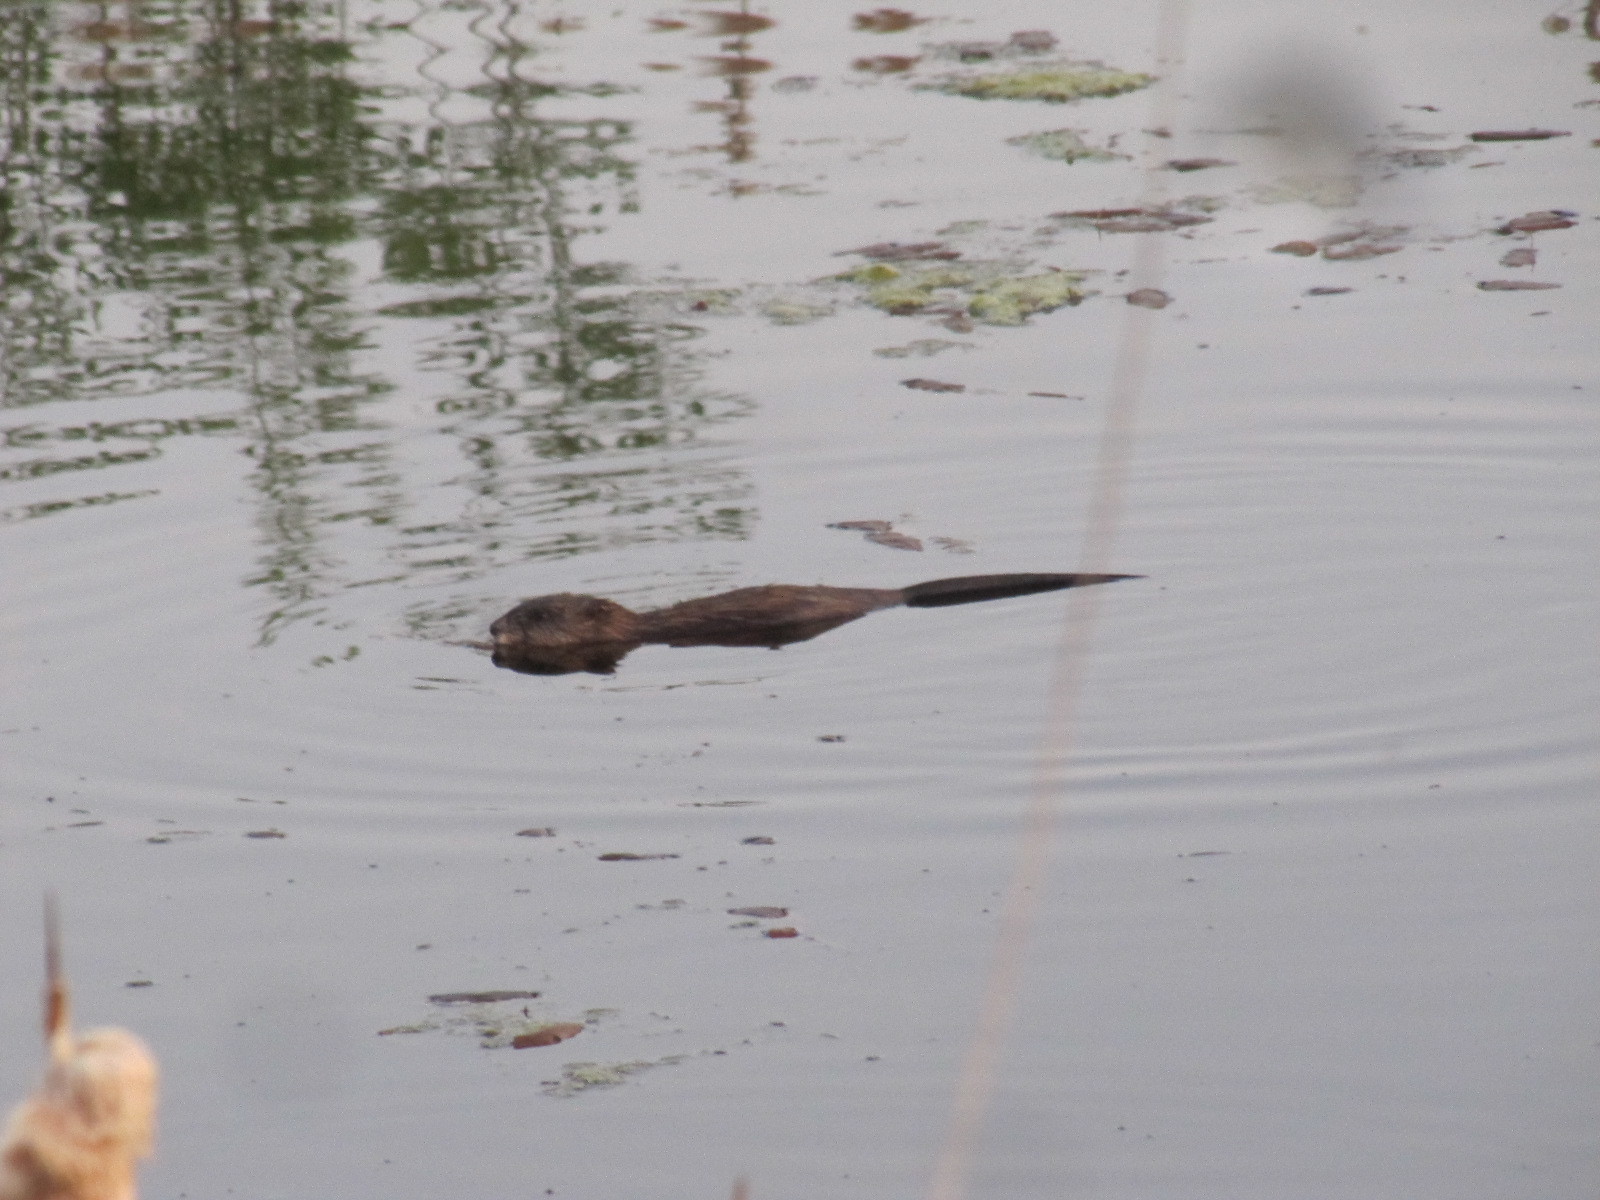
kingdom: Animalia
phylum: Chordata
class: Mammalia
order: Rodentia
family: Cricetidae
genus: Ondatra
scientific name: Ondatra zibethicus
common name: Muskrat
